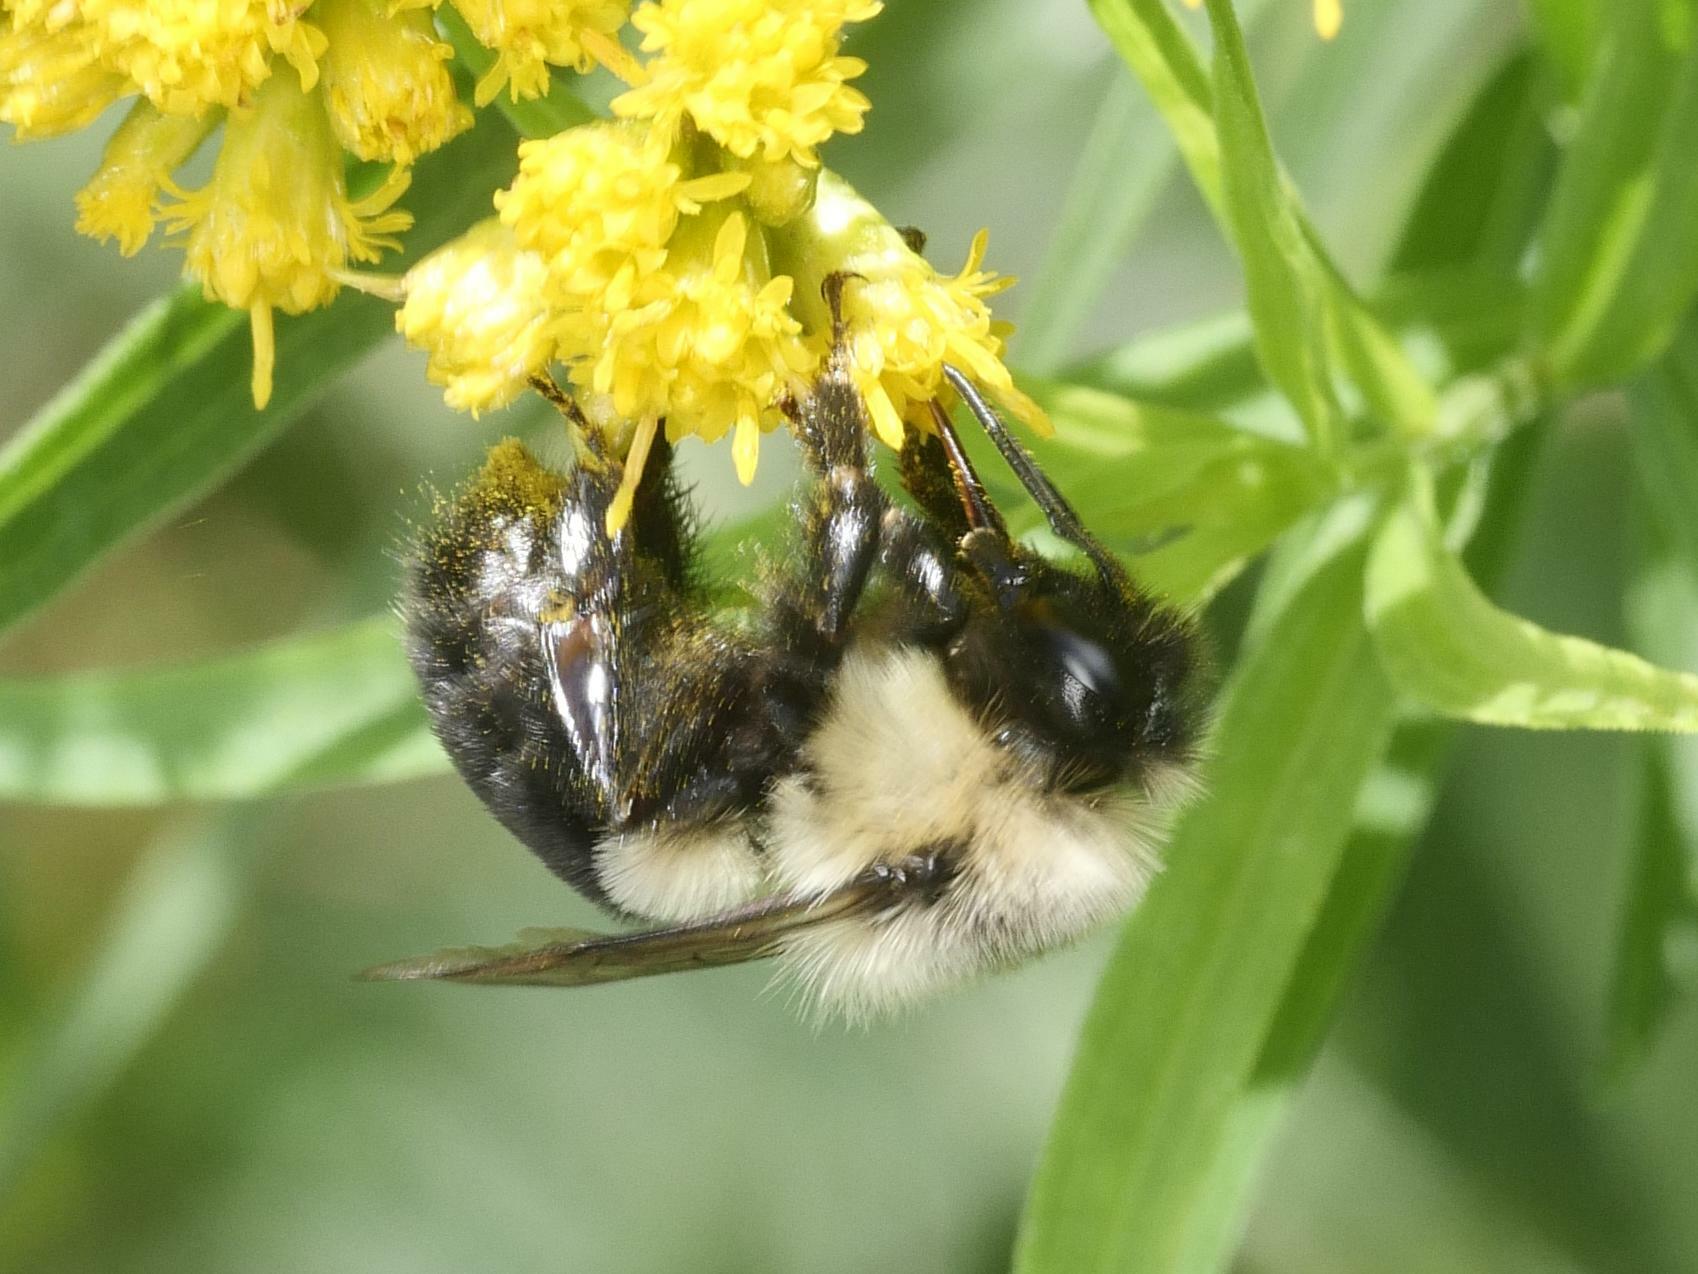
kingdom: Animalia
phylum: Arthropoda
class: Insecta
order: Hymenoptera
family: Apidae
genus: Bombus
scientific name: Bombus impatiens
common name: Common eastern bumble bee
